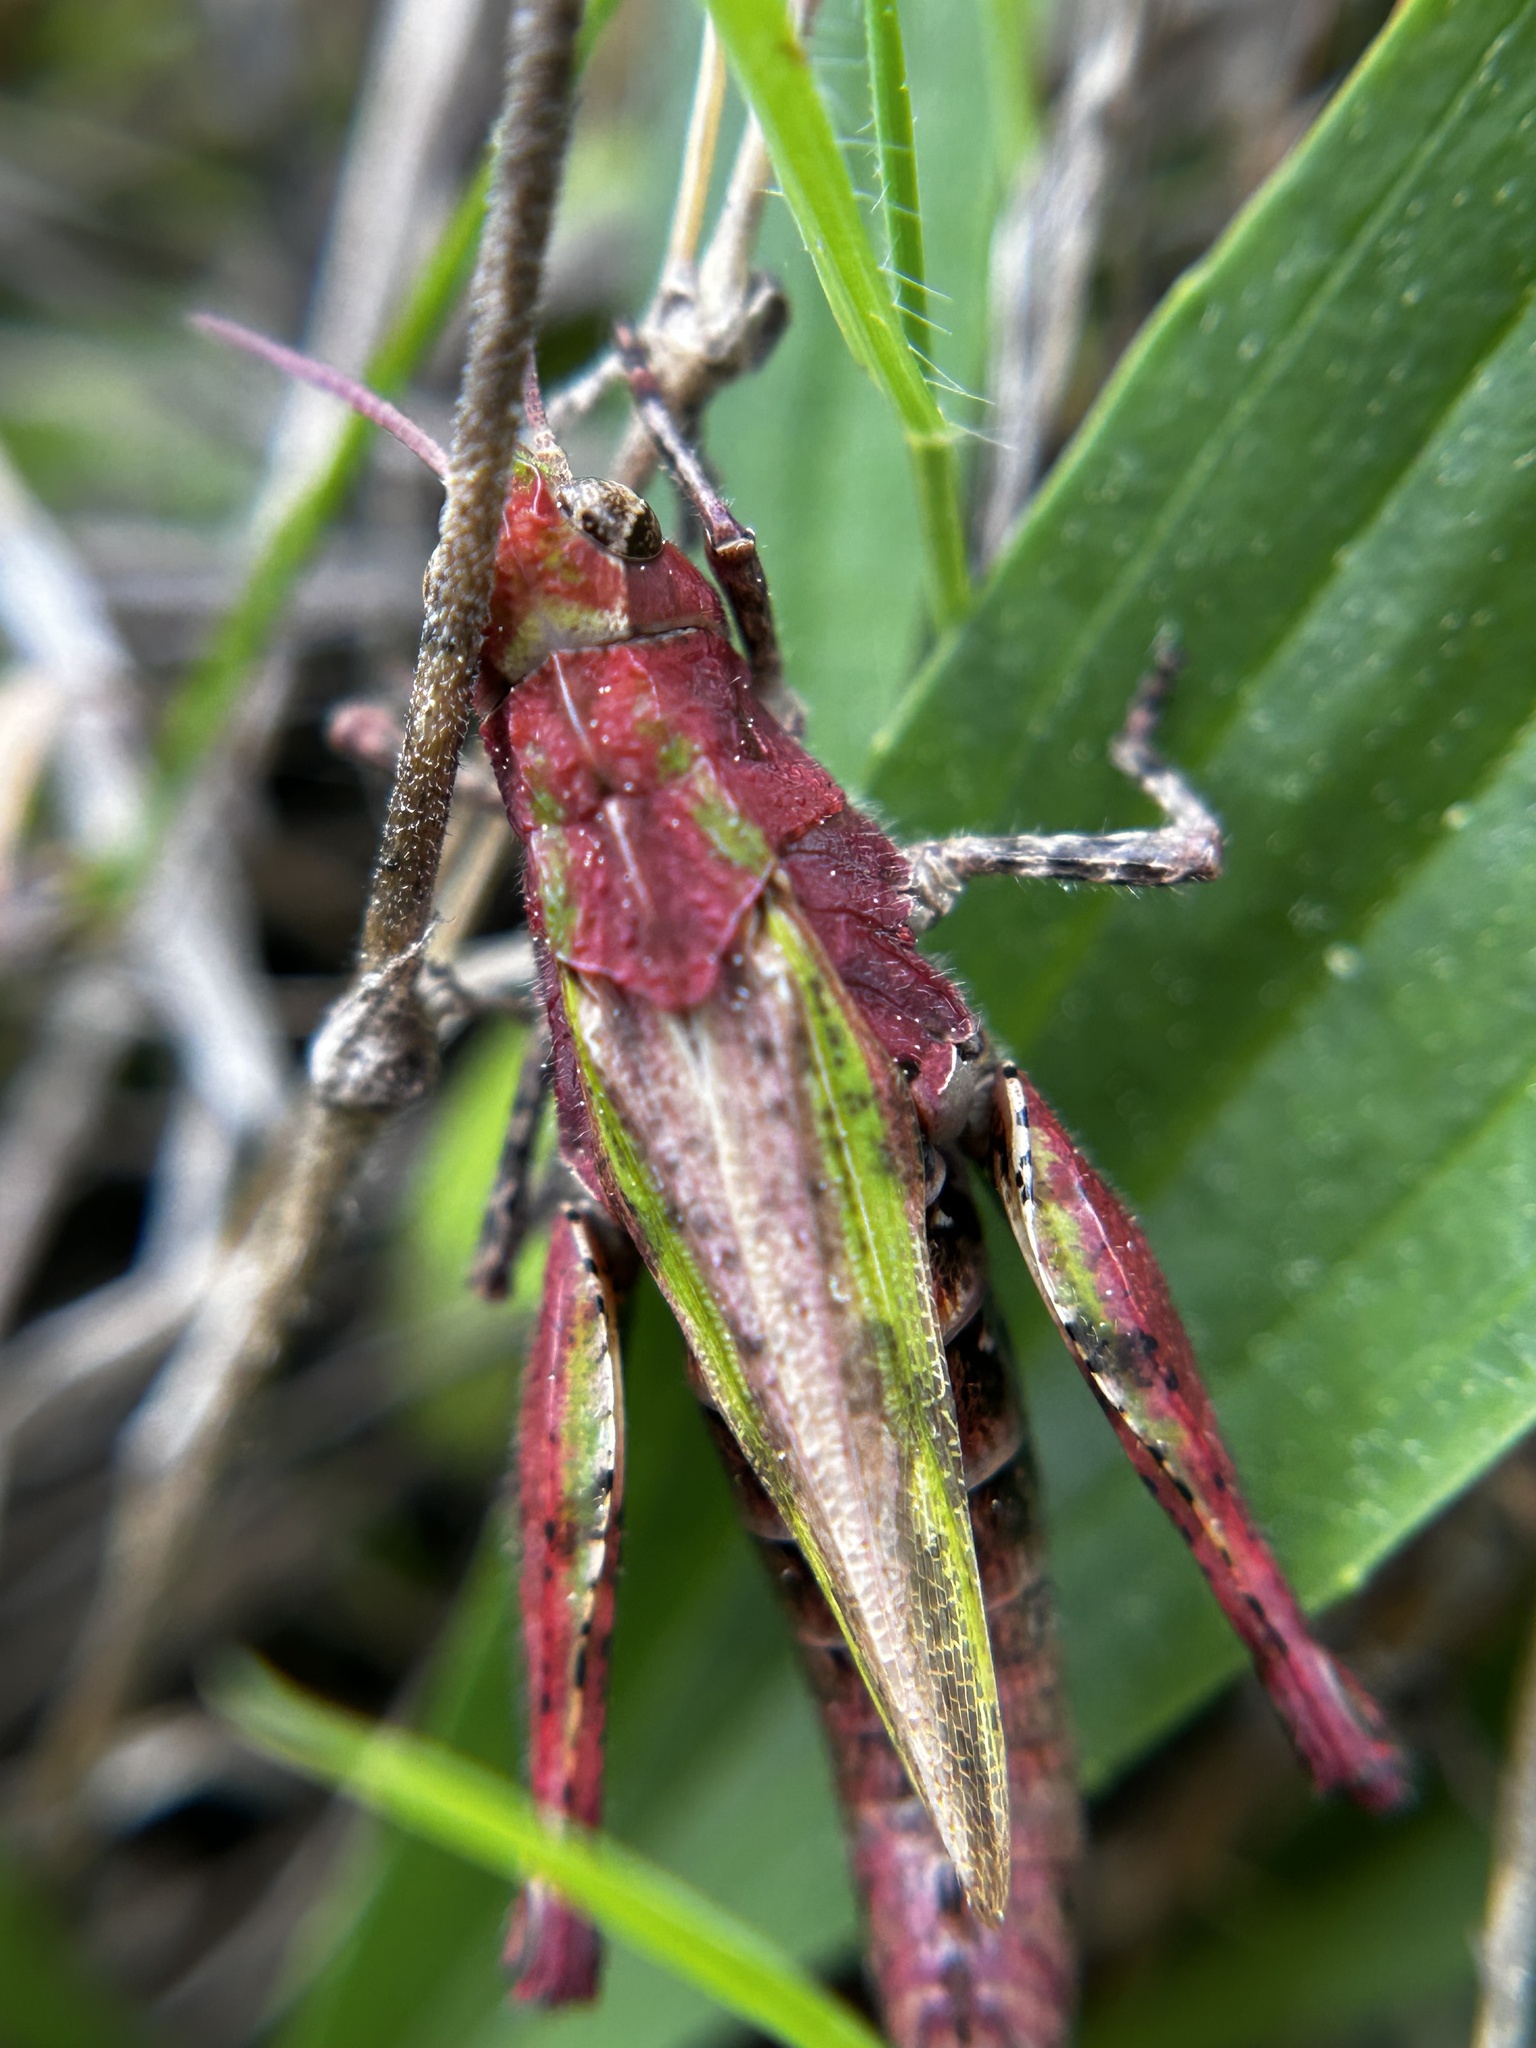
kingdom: Animalia
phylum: Arthropoda
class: Insecta
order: Orthoptera
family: Acrididae
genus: Chimarocephala
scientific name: Chimarocephala pacifica
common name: Painted meadow grasshopper
